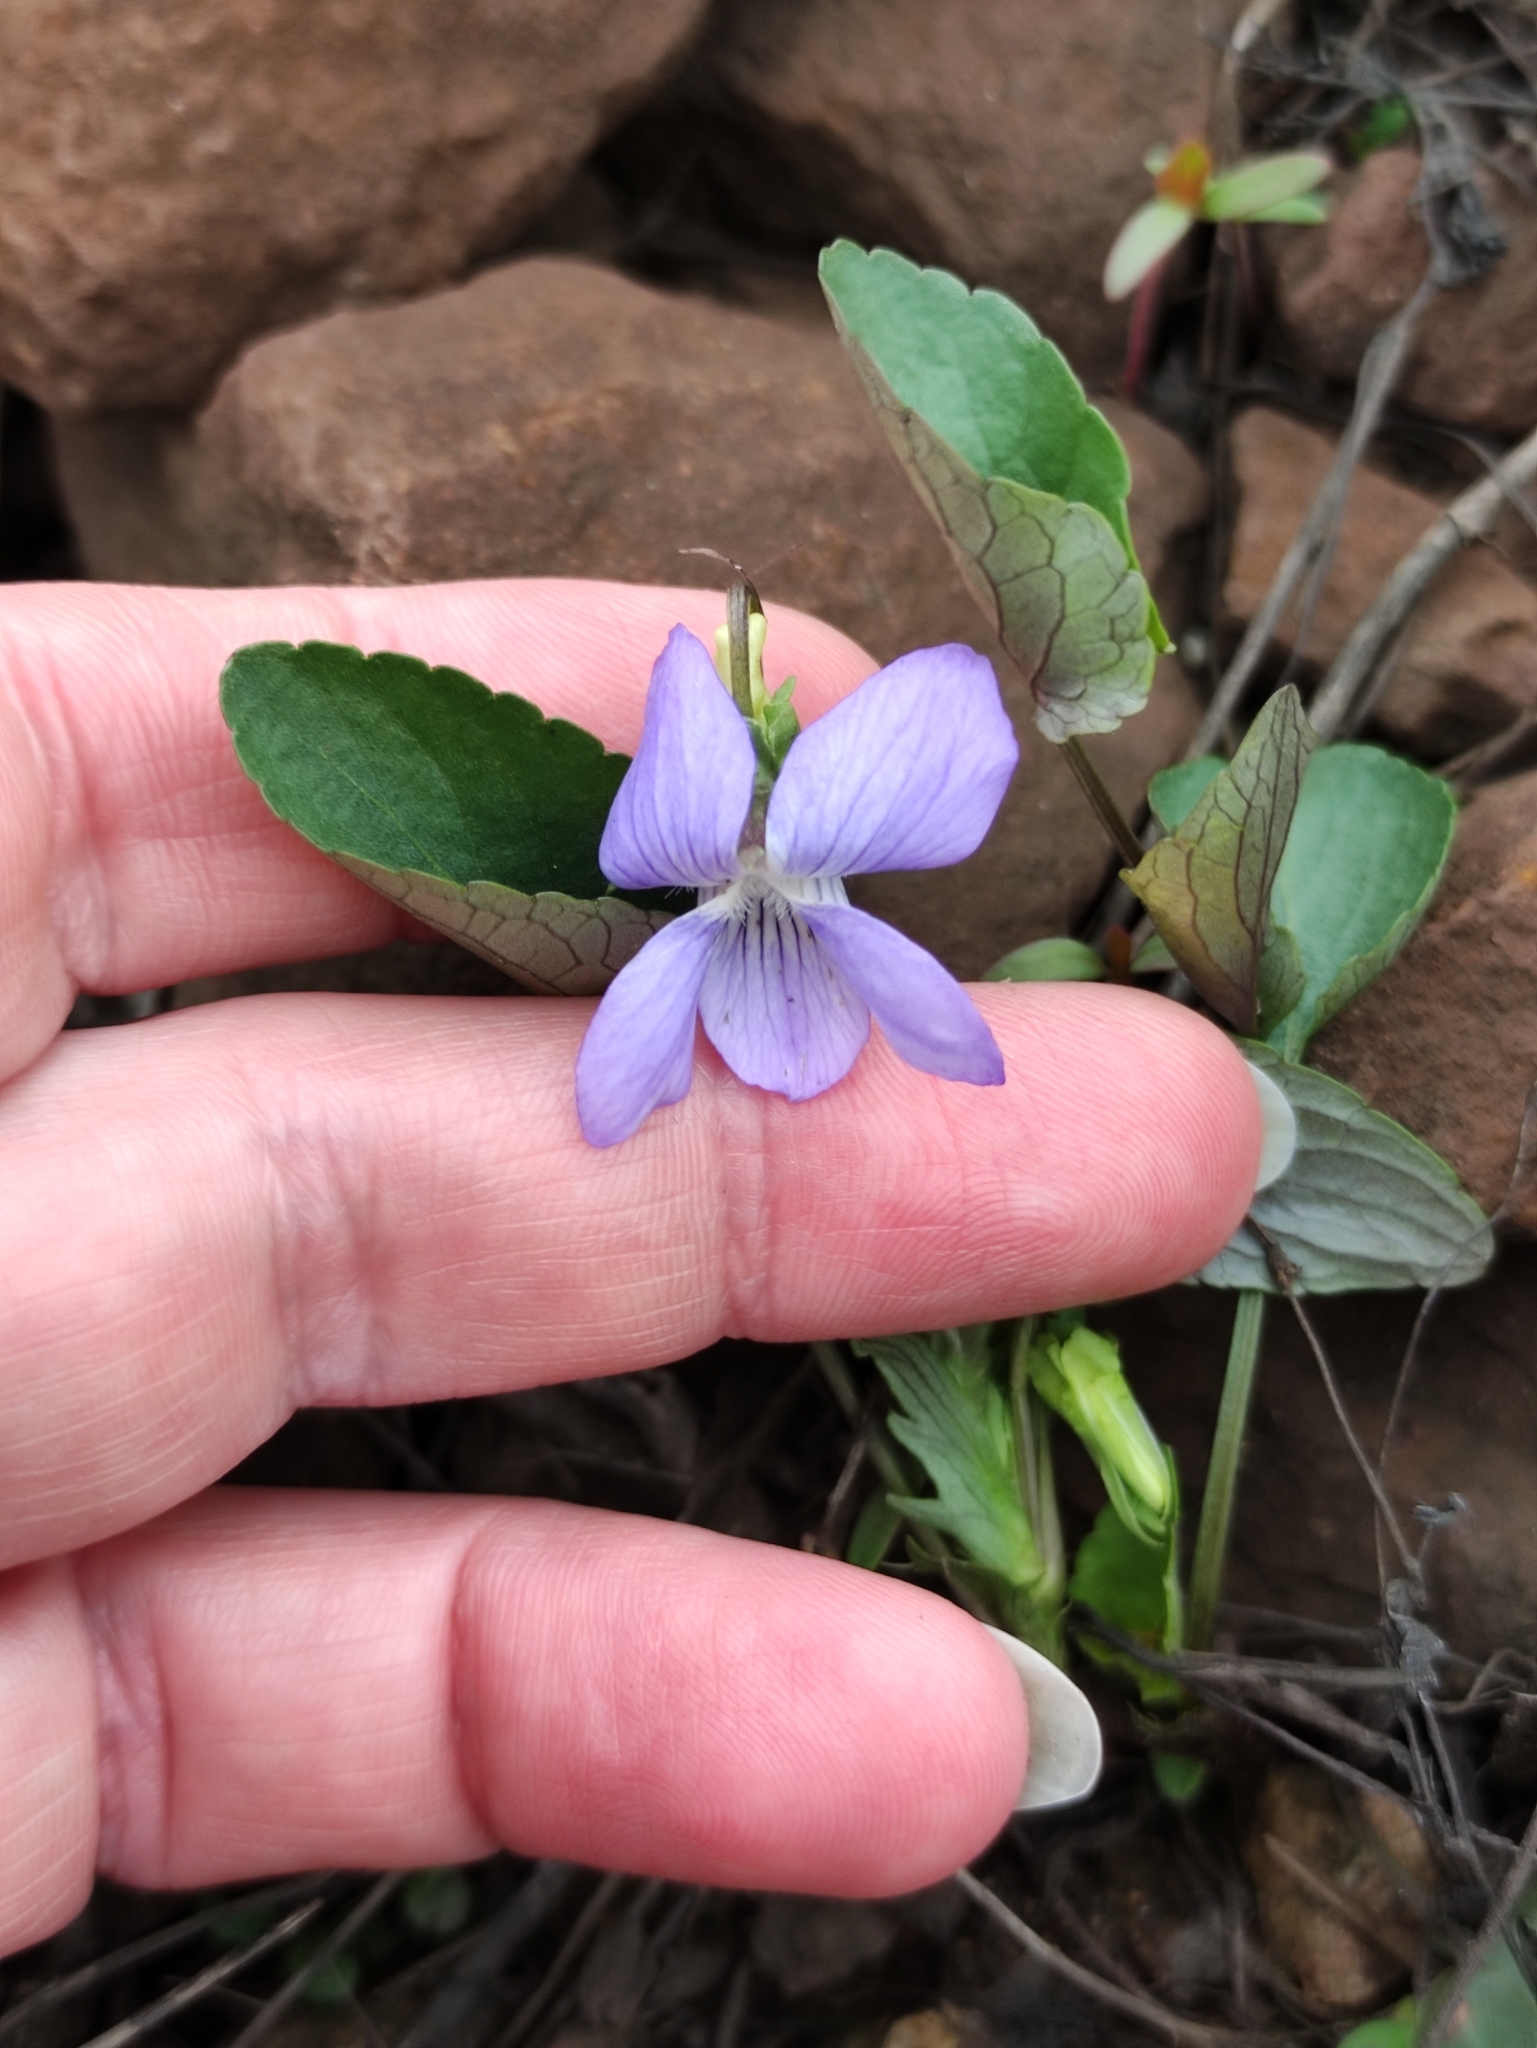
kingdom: Plantae
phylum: Tracheophyta
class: Magnoliopsida
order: Malpighiales
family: Violaceae
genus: Viola
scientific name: Viola canina
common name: Heath dog-violet
